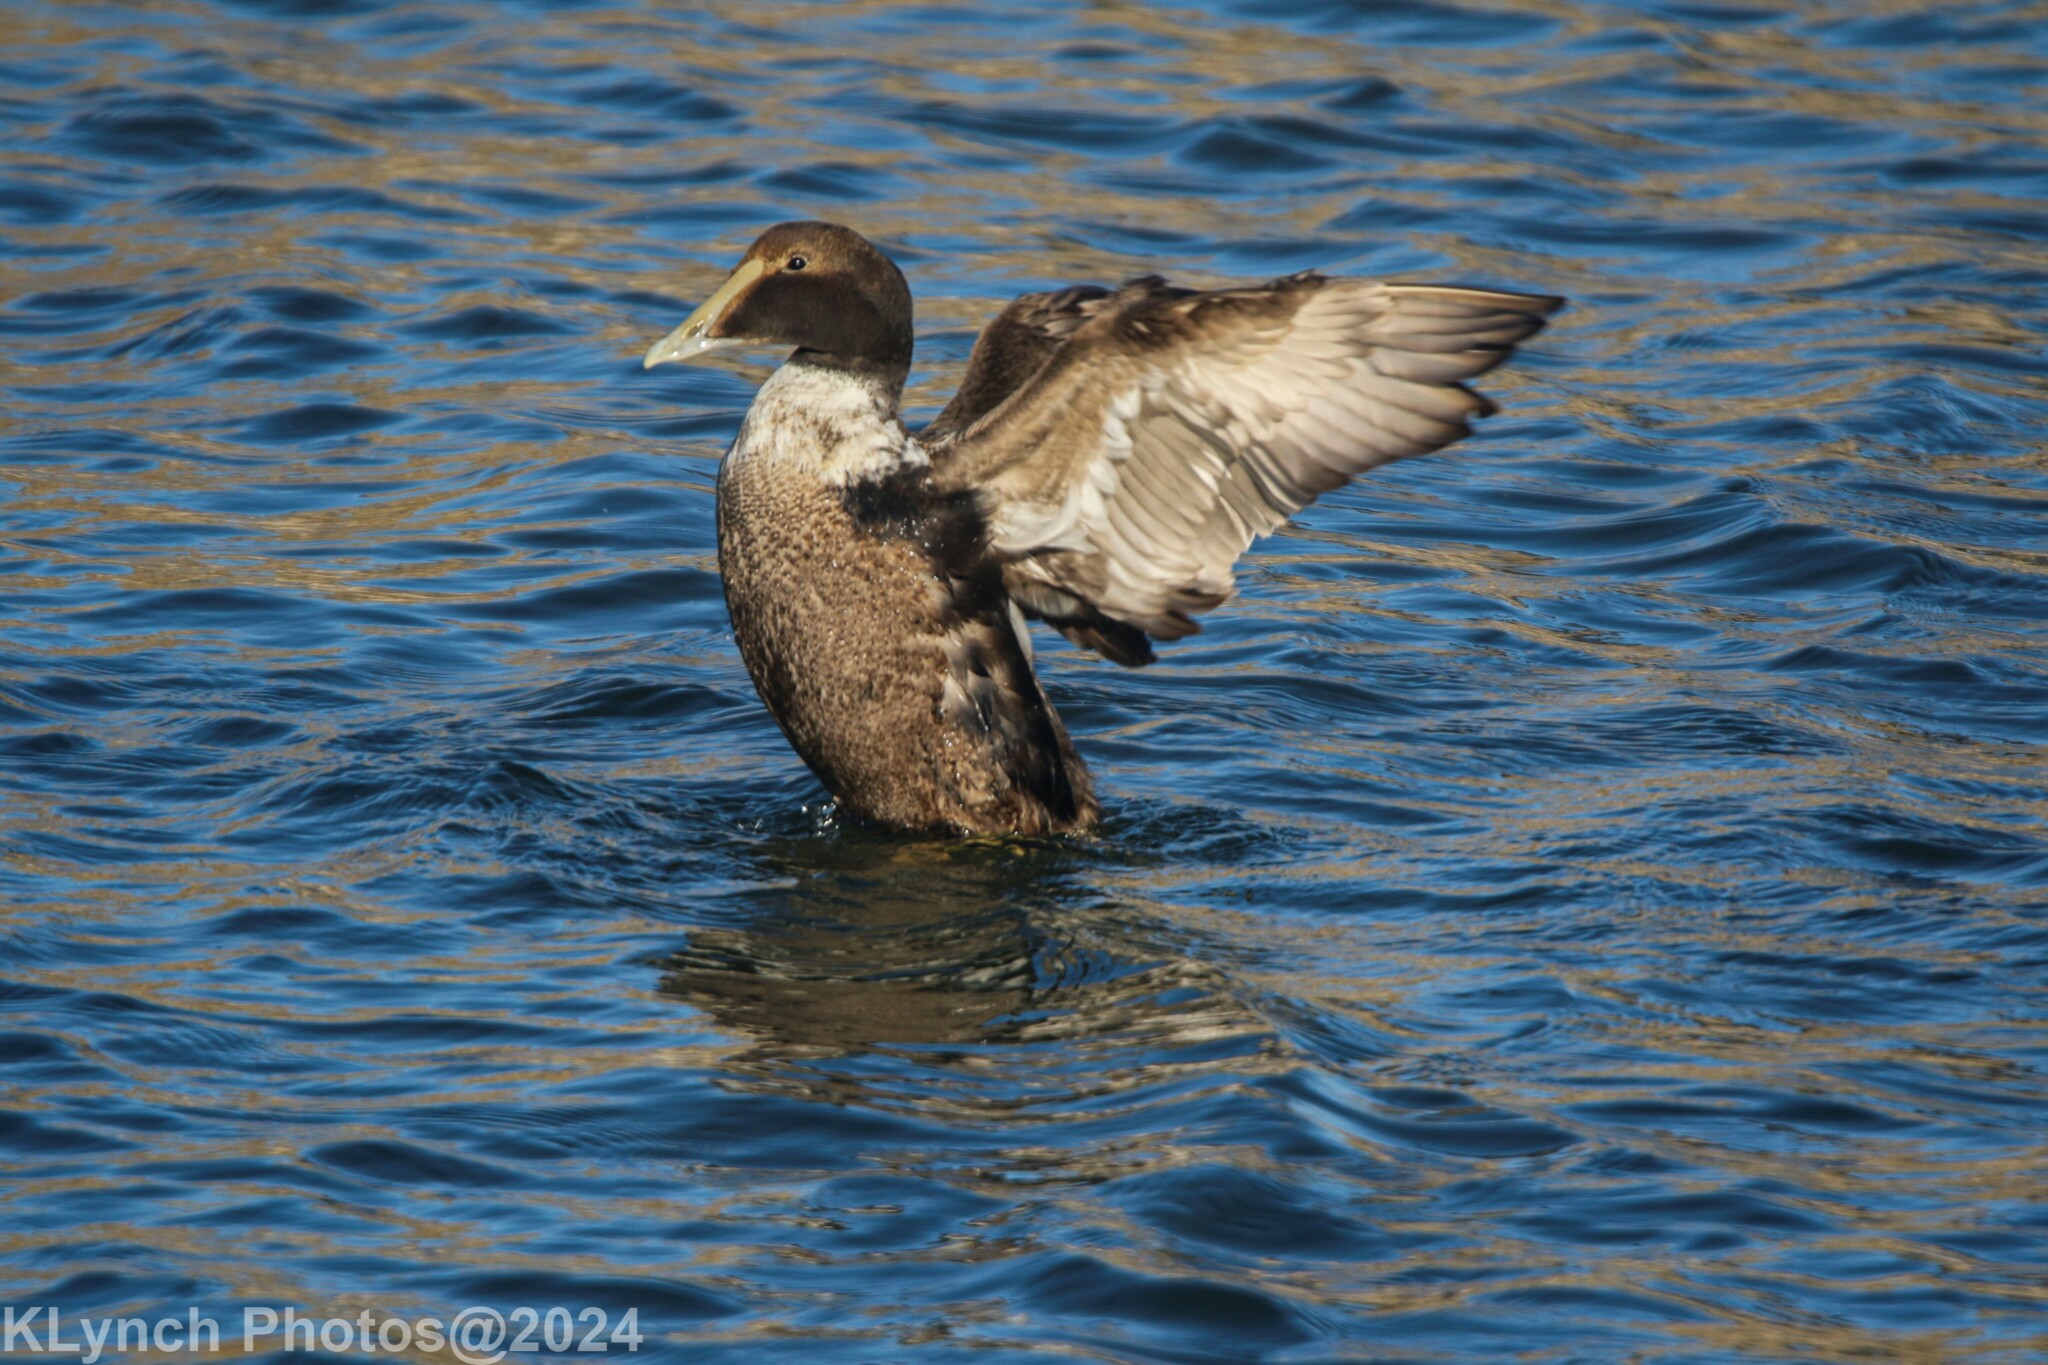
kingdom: Animalia
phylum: Chordata
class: Aves
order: Anseriformes
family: Anatidae
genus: Somateria
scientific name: Somateria mollissima
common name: Common eider
